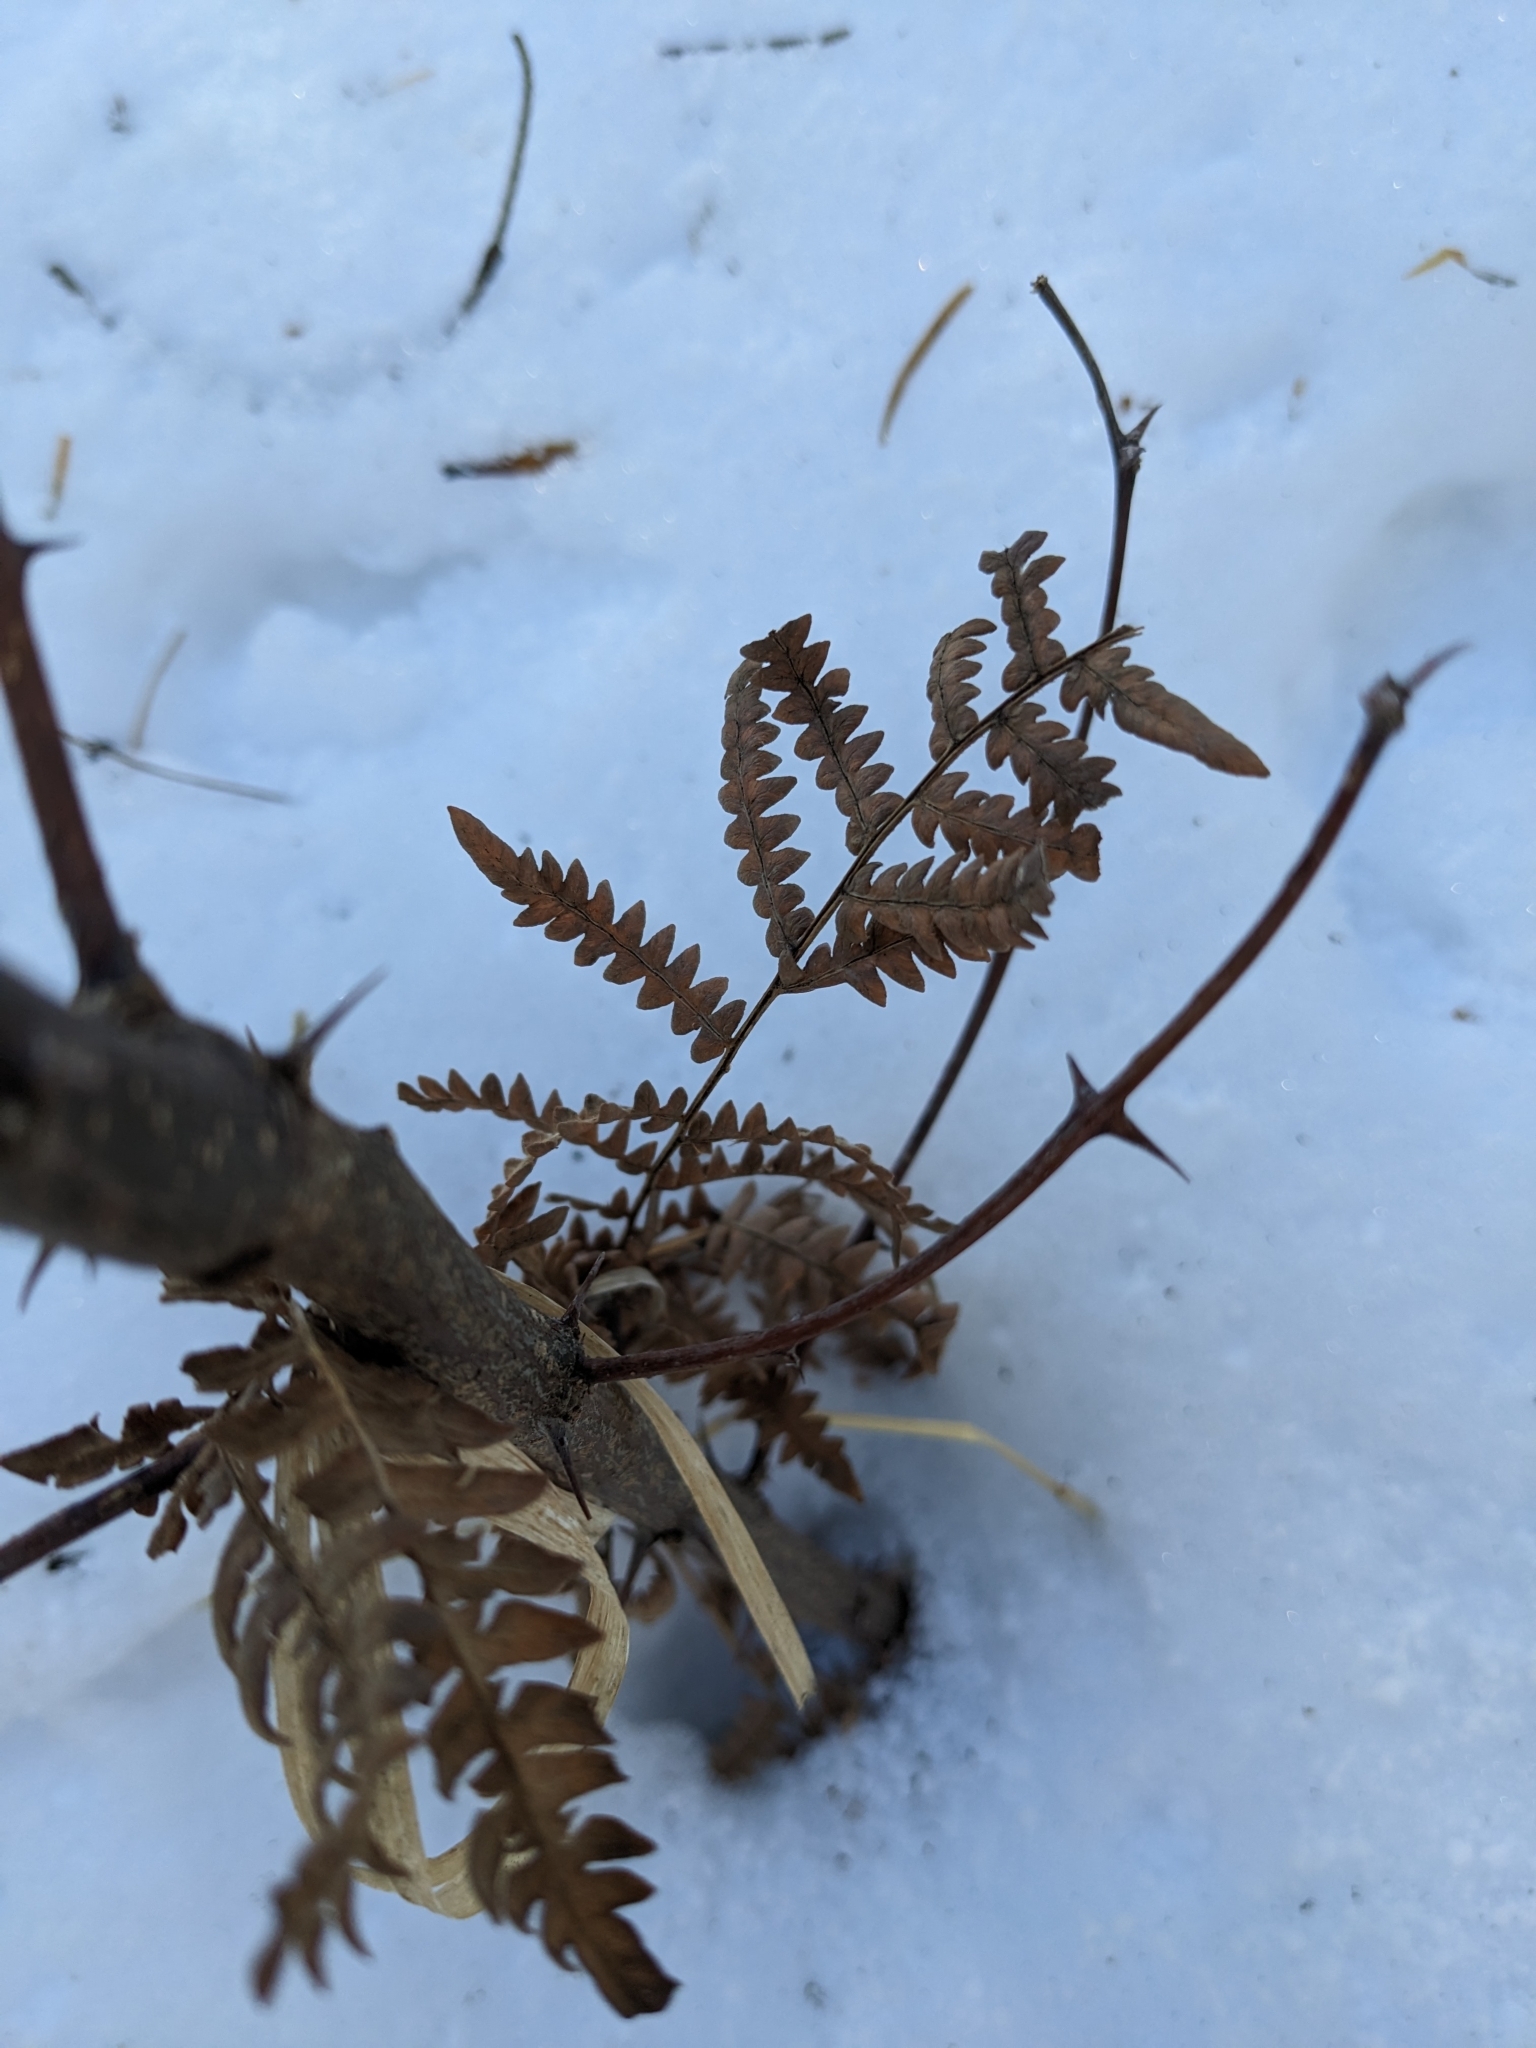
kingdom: Plantae
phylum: Tracheophyta
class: Polypodiopsida
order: Polypodiales
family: Dennstaedtiaceae
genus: Pteridium
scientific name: Pteridium aquilinum
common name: Bracken
